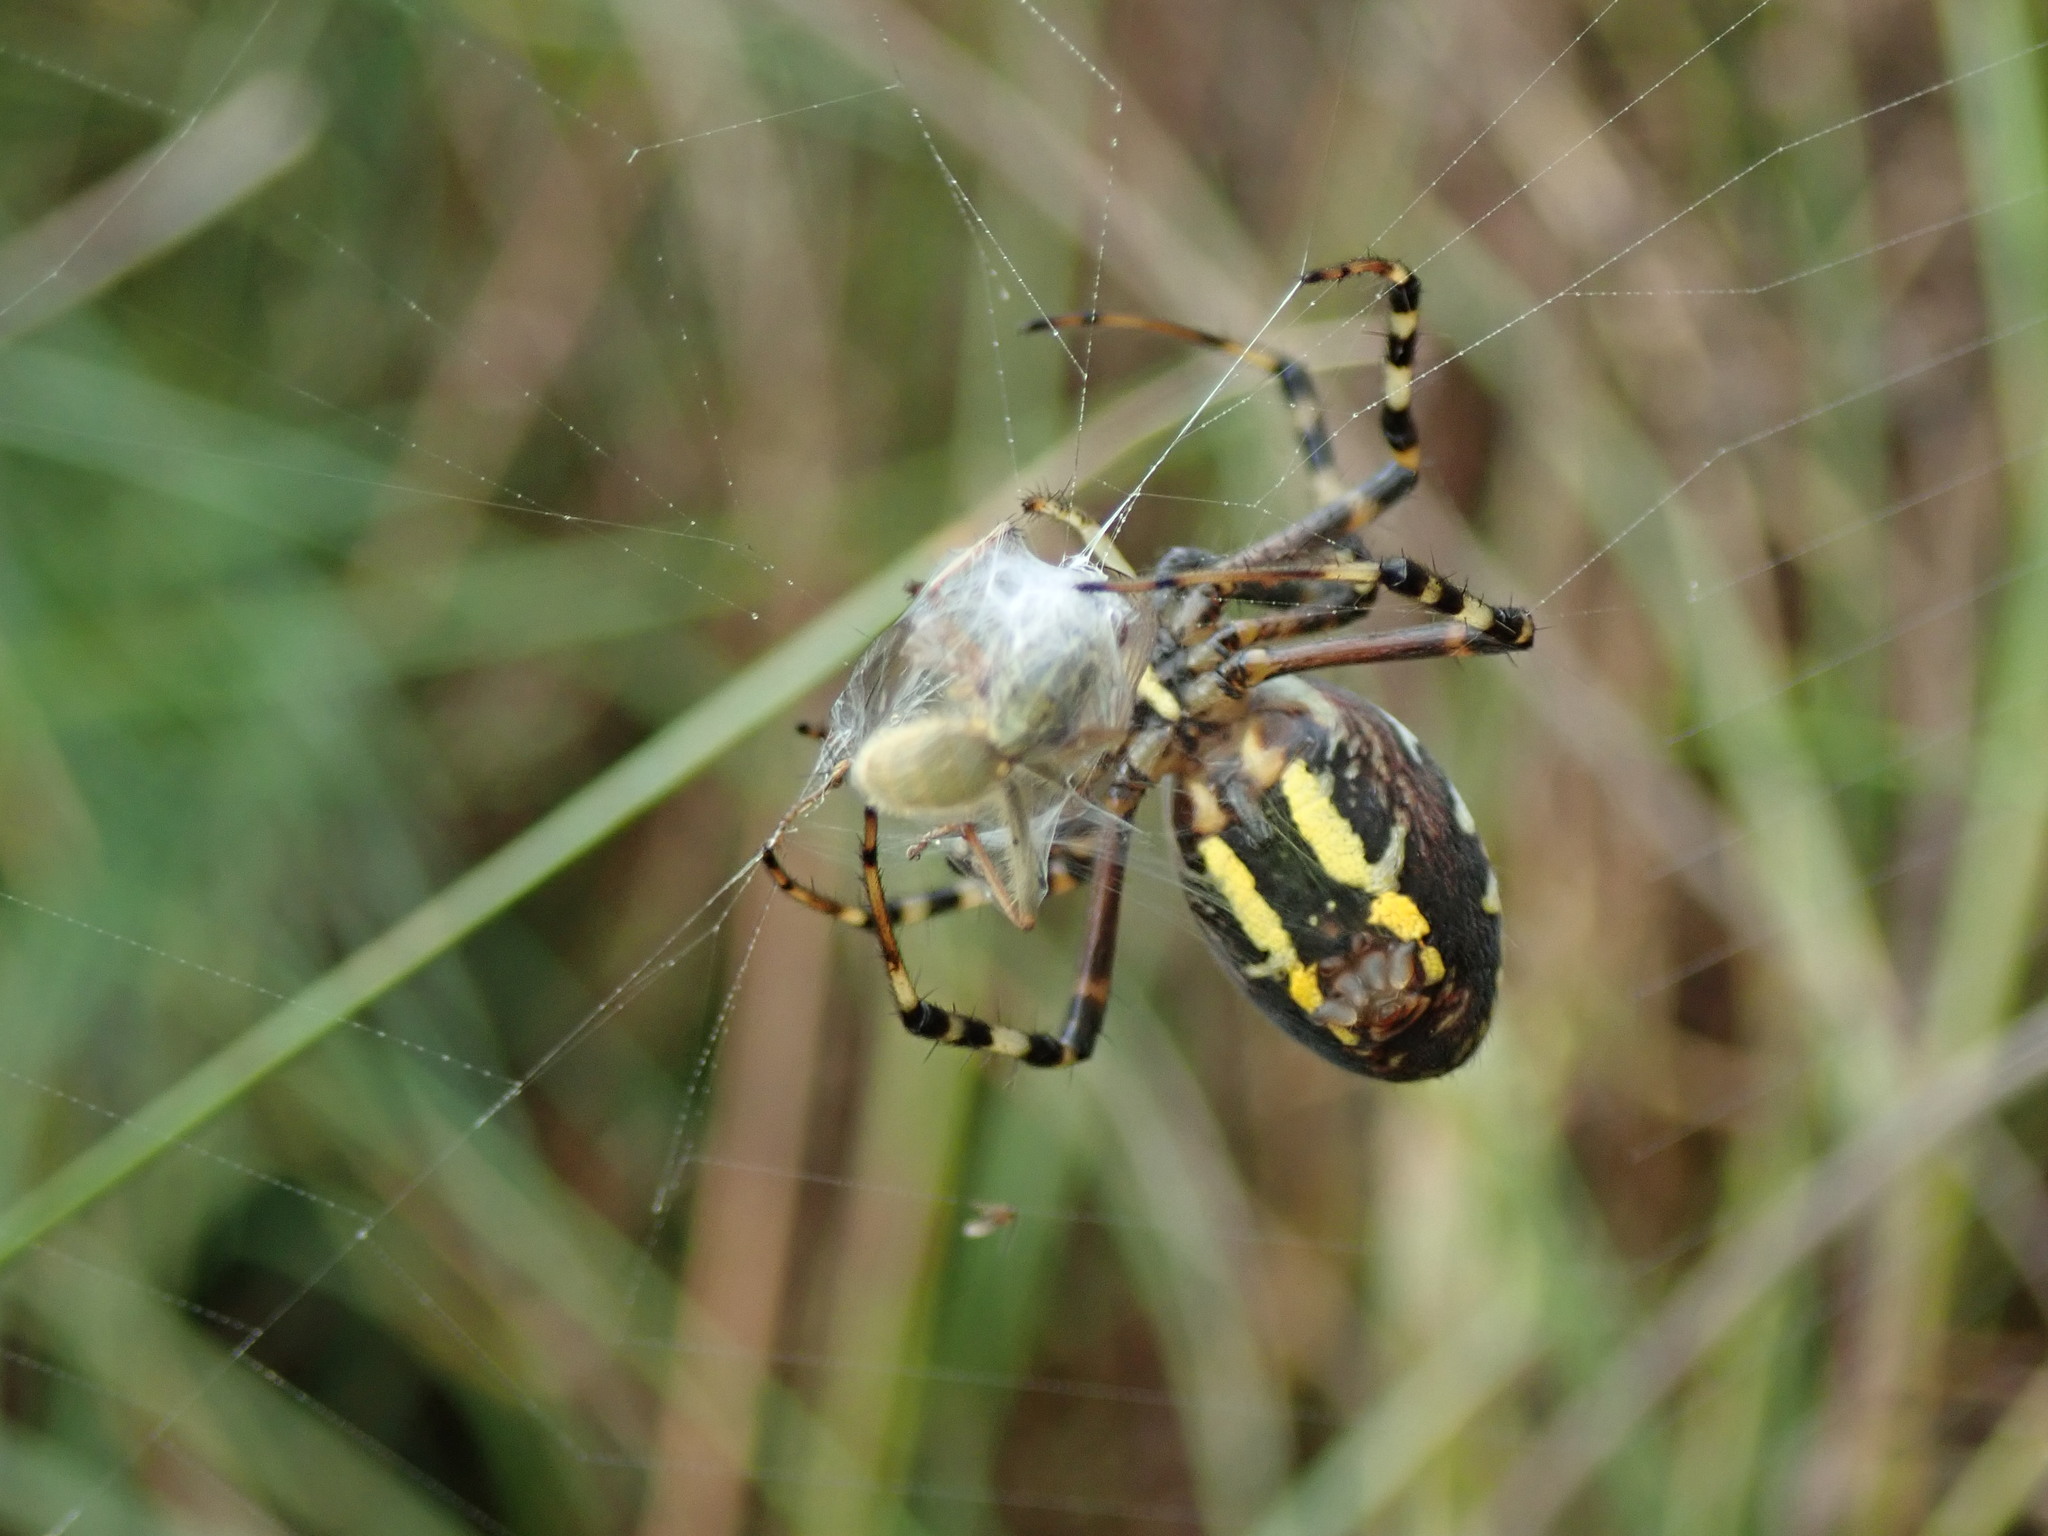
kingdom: Animalia
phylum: Arthropoda
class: Arachnida
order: Araneae
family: Araneidae
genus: Argiope
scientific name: Argiope bruennichi
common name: Wasp spider
